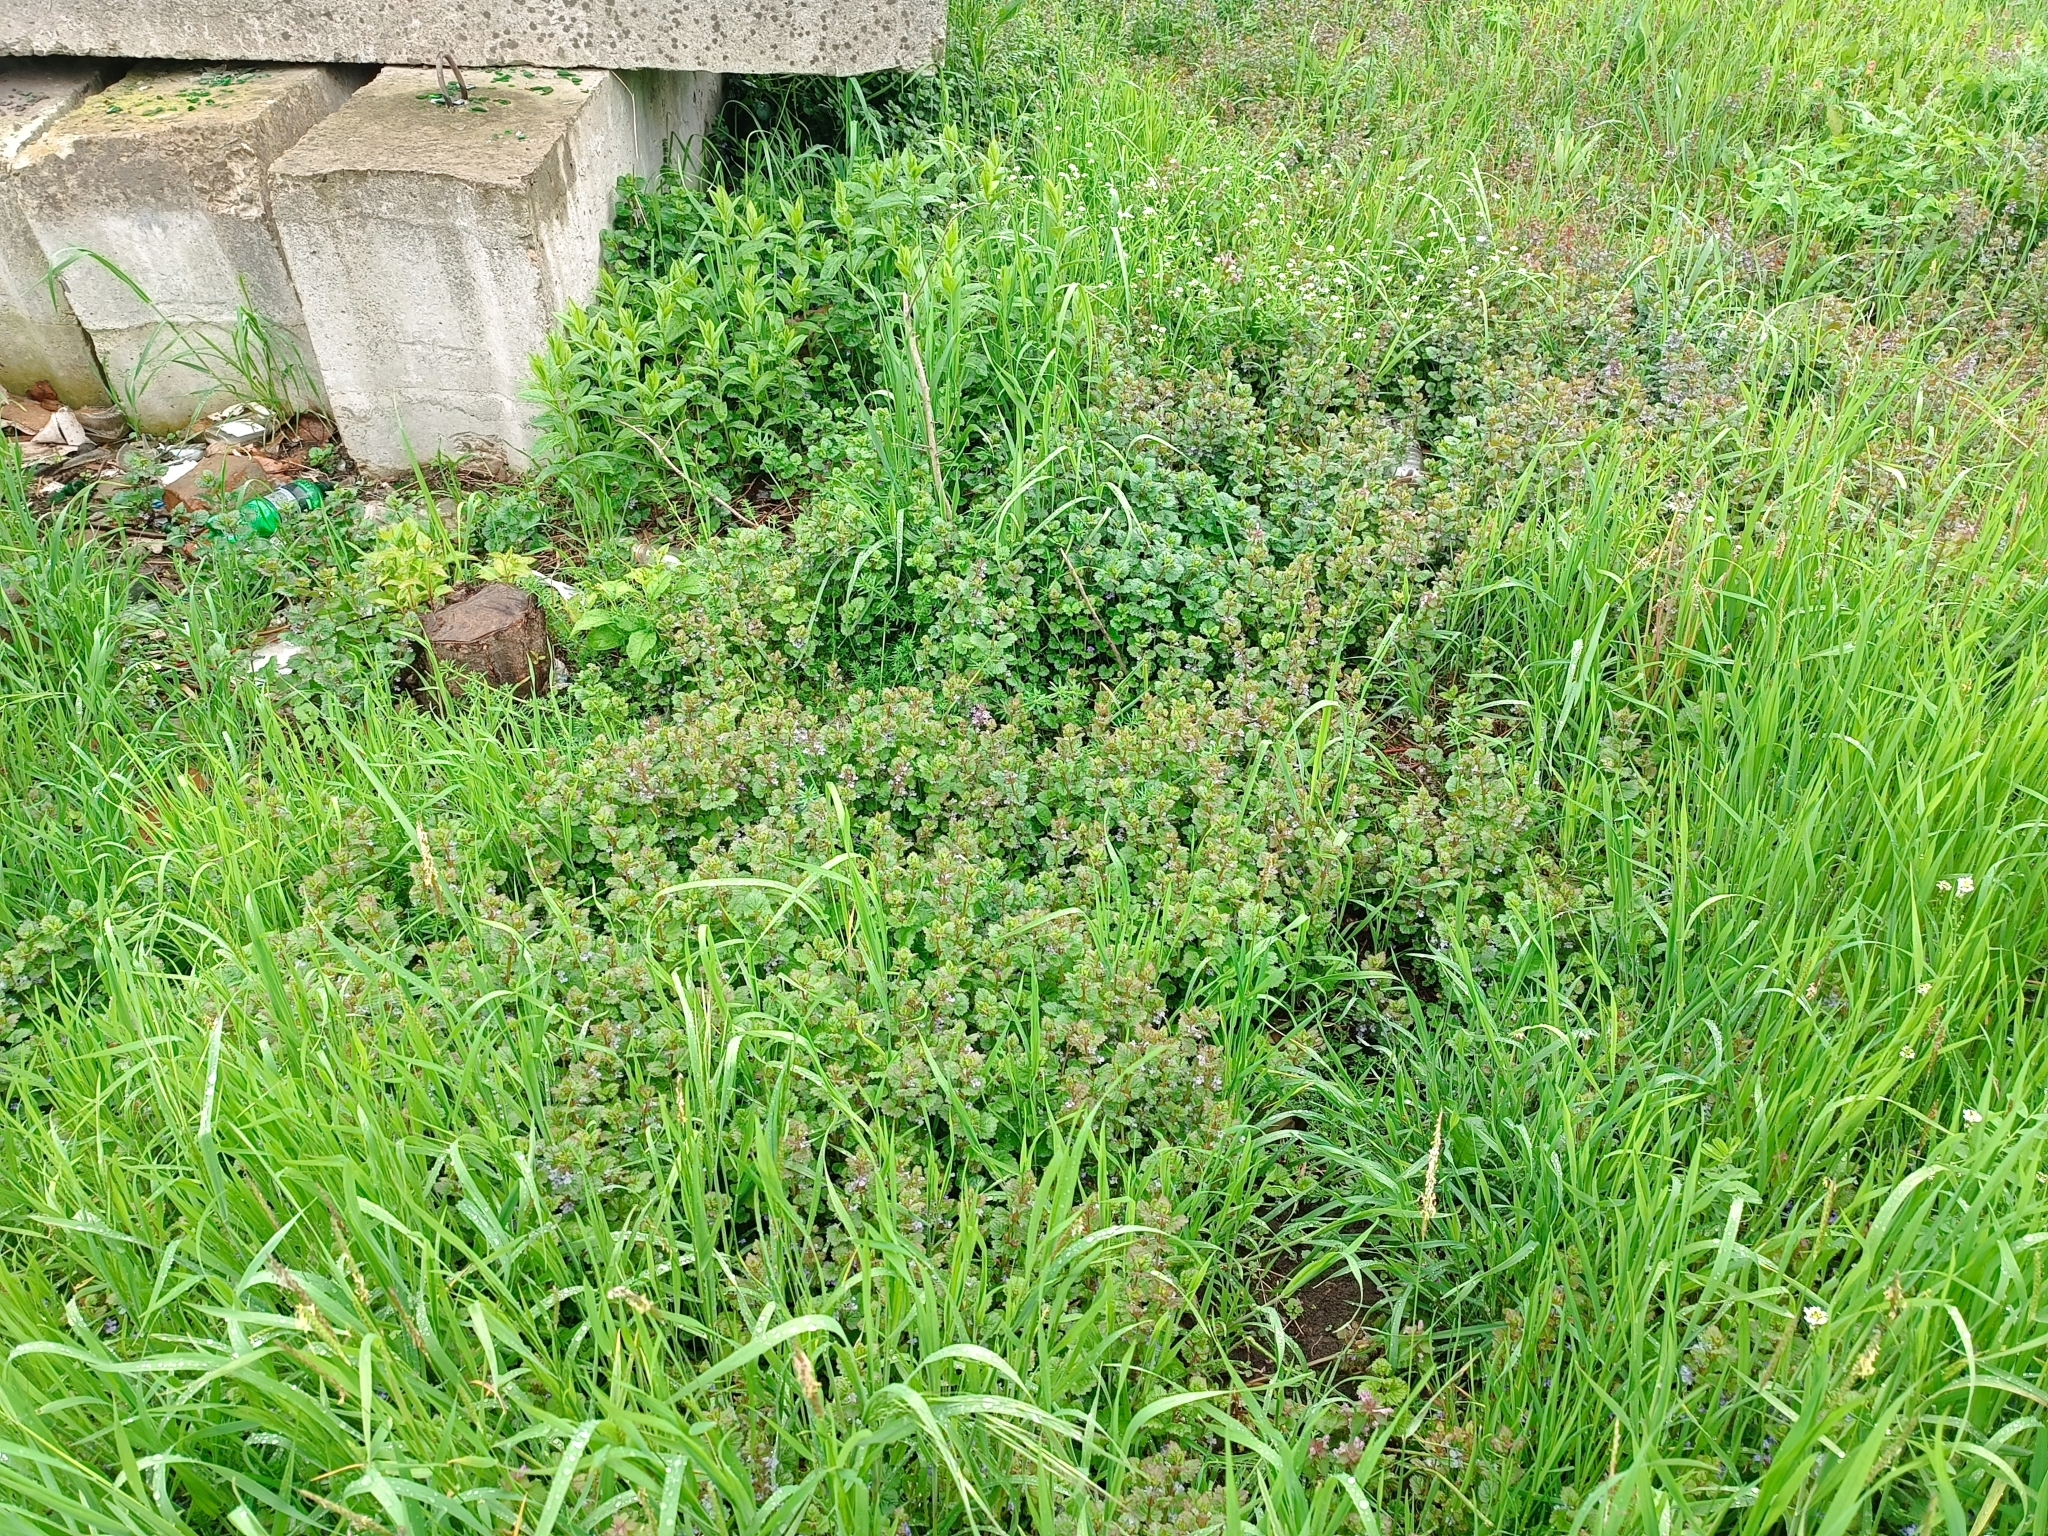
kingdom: Plantae
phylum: Tracheophyta
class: Magnoliopsida
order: Lamiales
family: Lamiaceae
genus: Glechoma
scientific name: Glechoma hederacea
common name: Ground ivy
